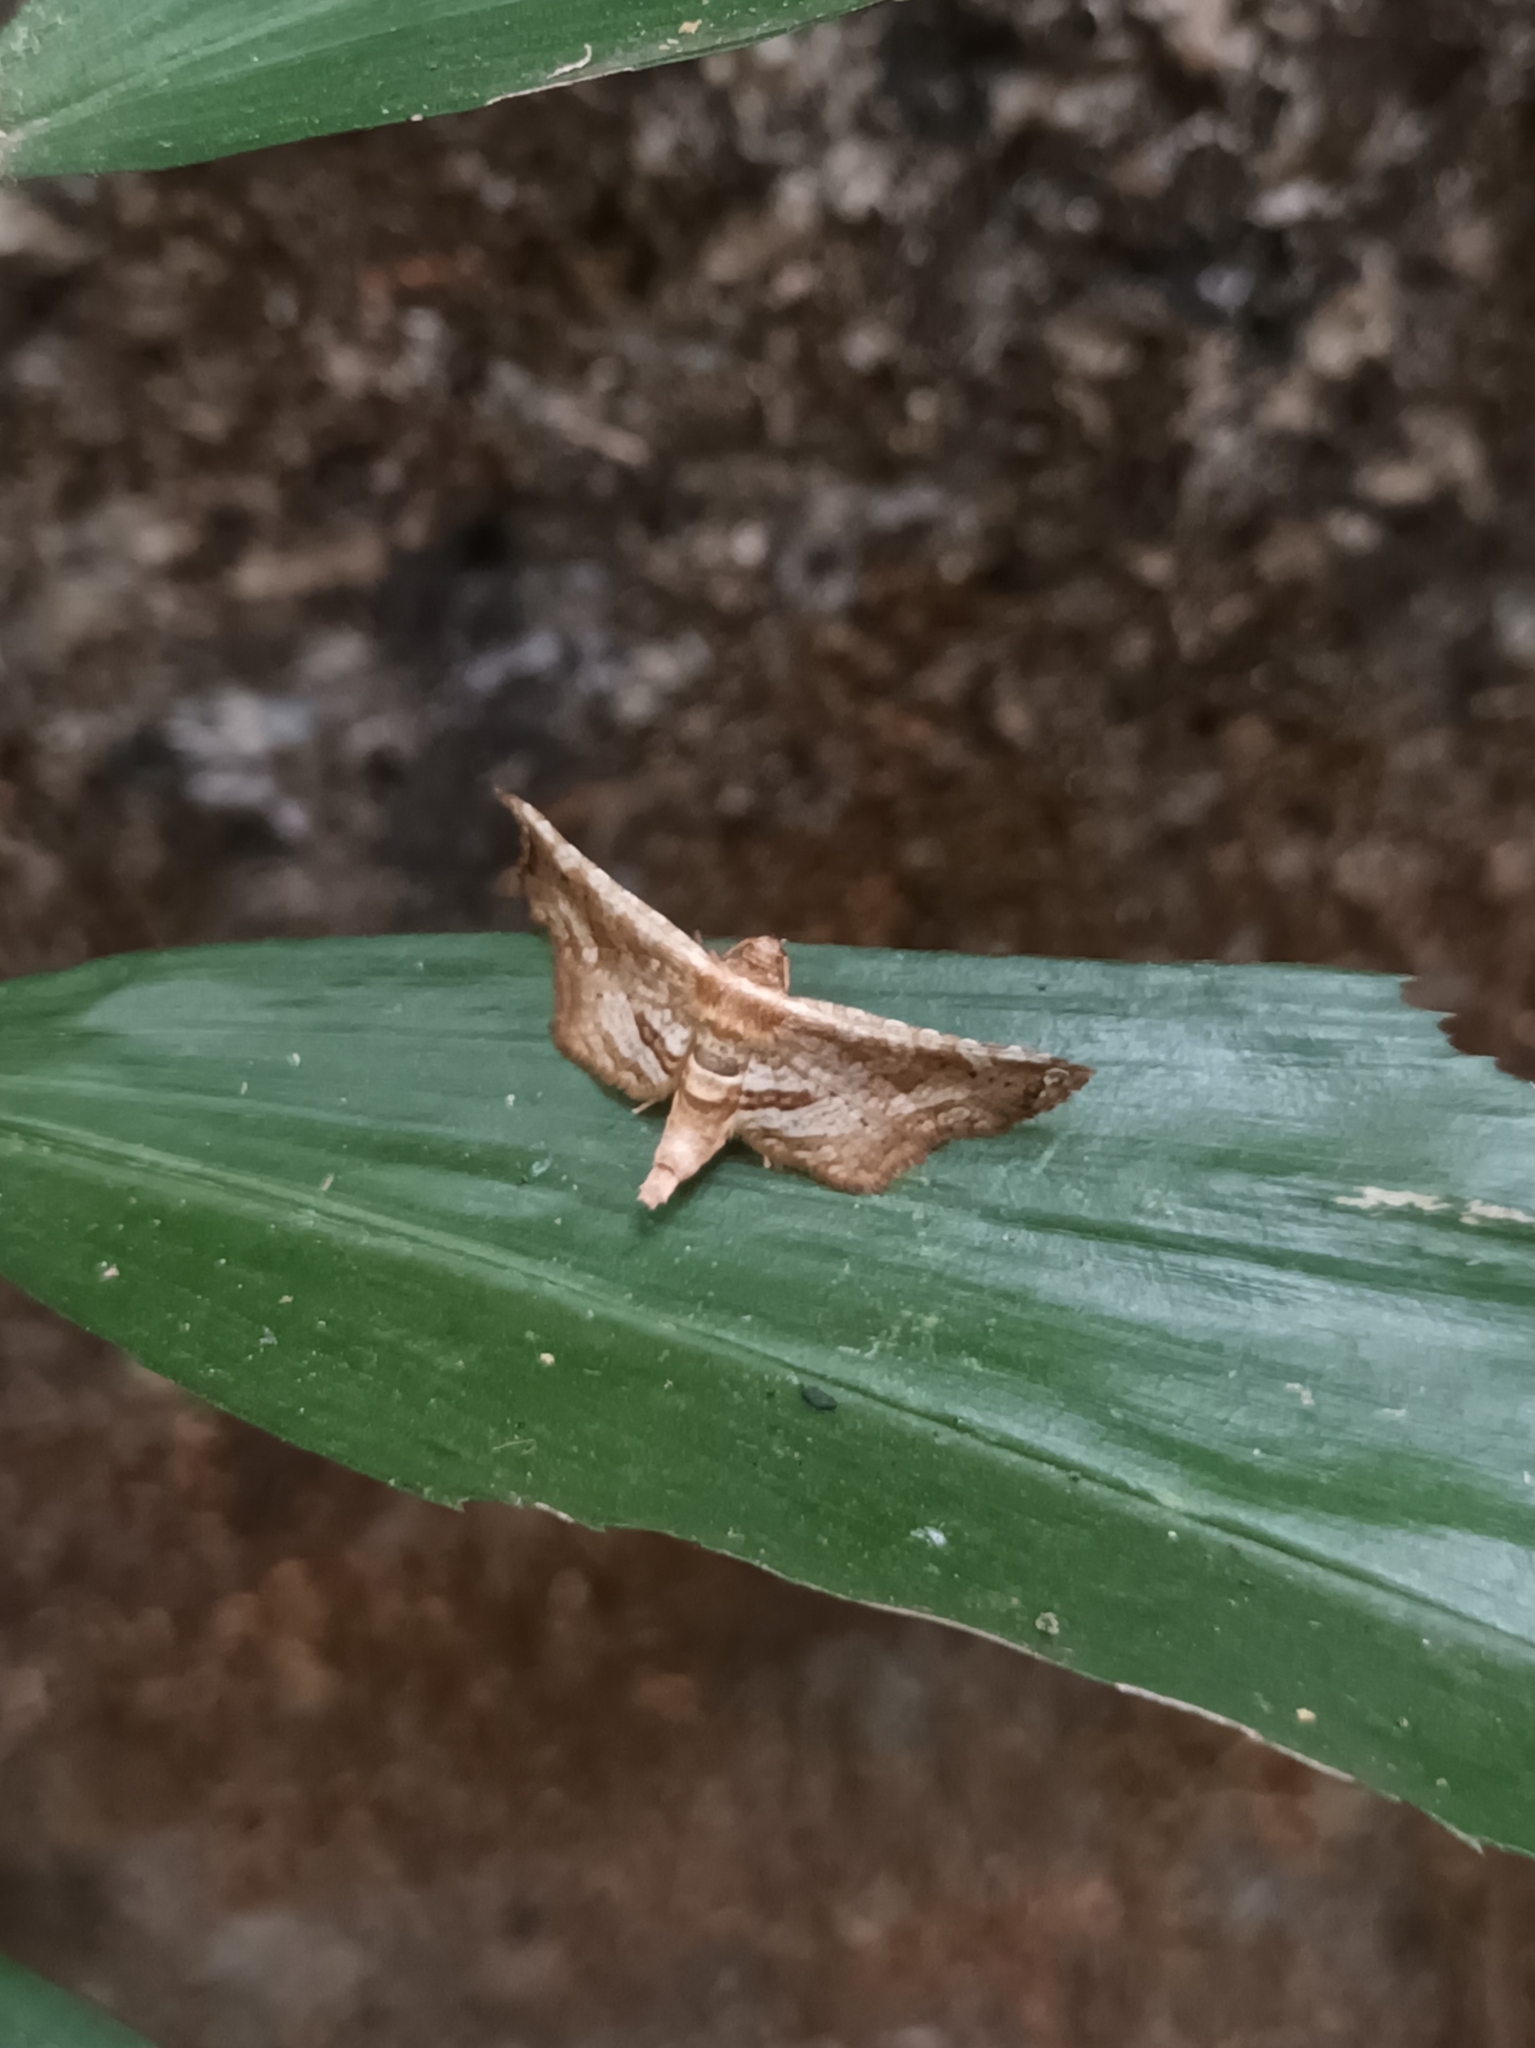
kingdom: Animalia
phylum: Arthropoda
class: Insecta
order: Lepidoptera
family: Thyrididae
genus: Collinsa
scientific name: Collinsa acutalis
